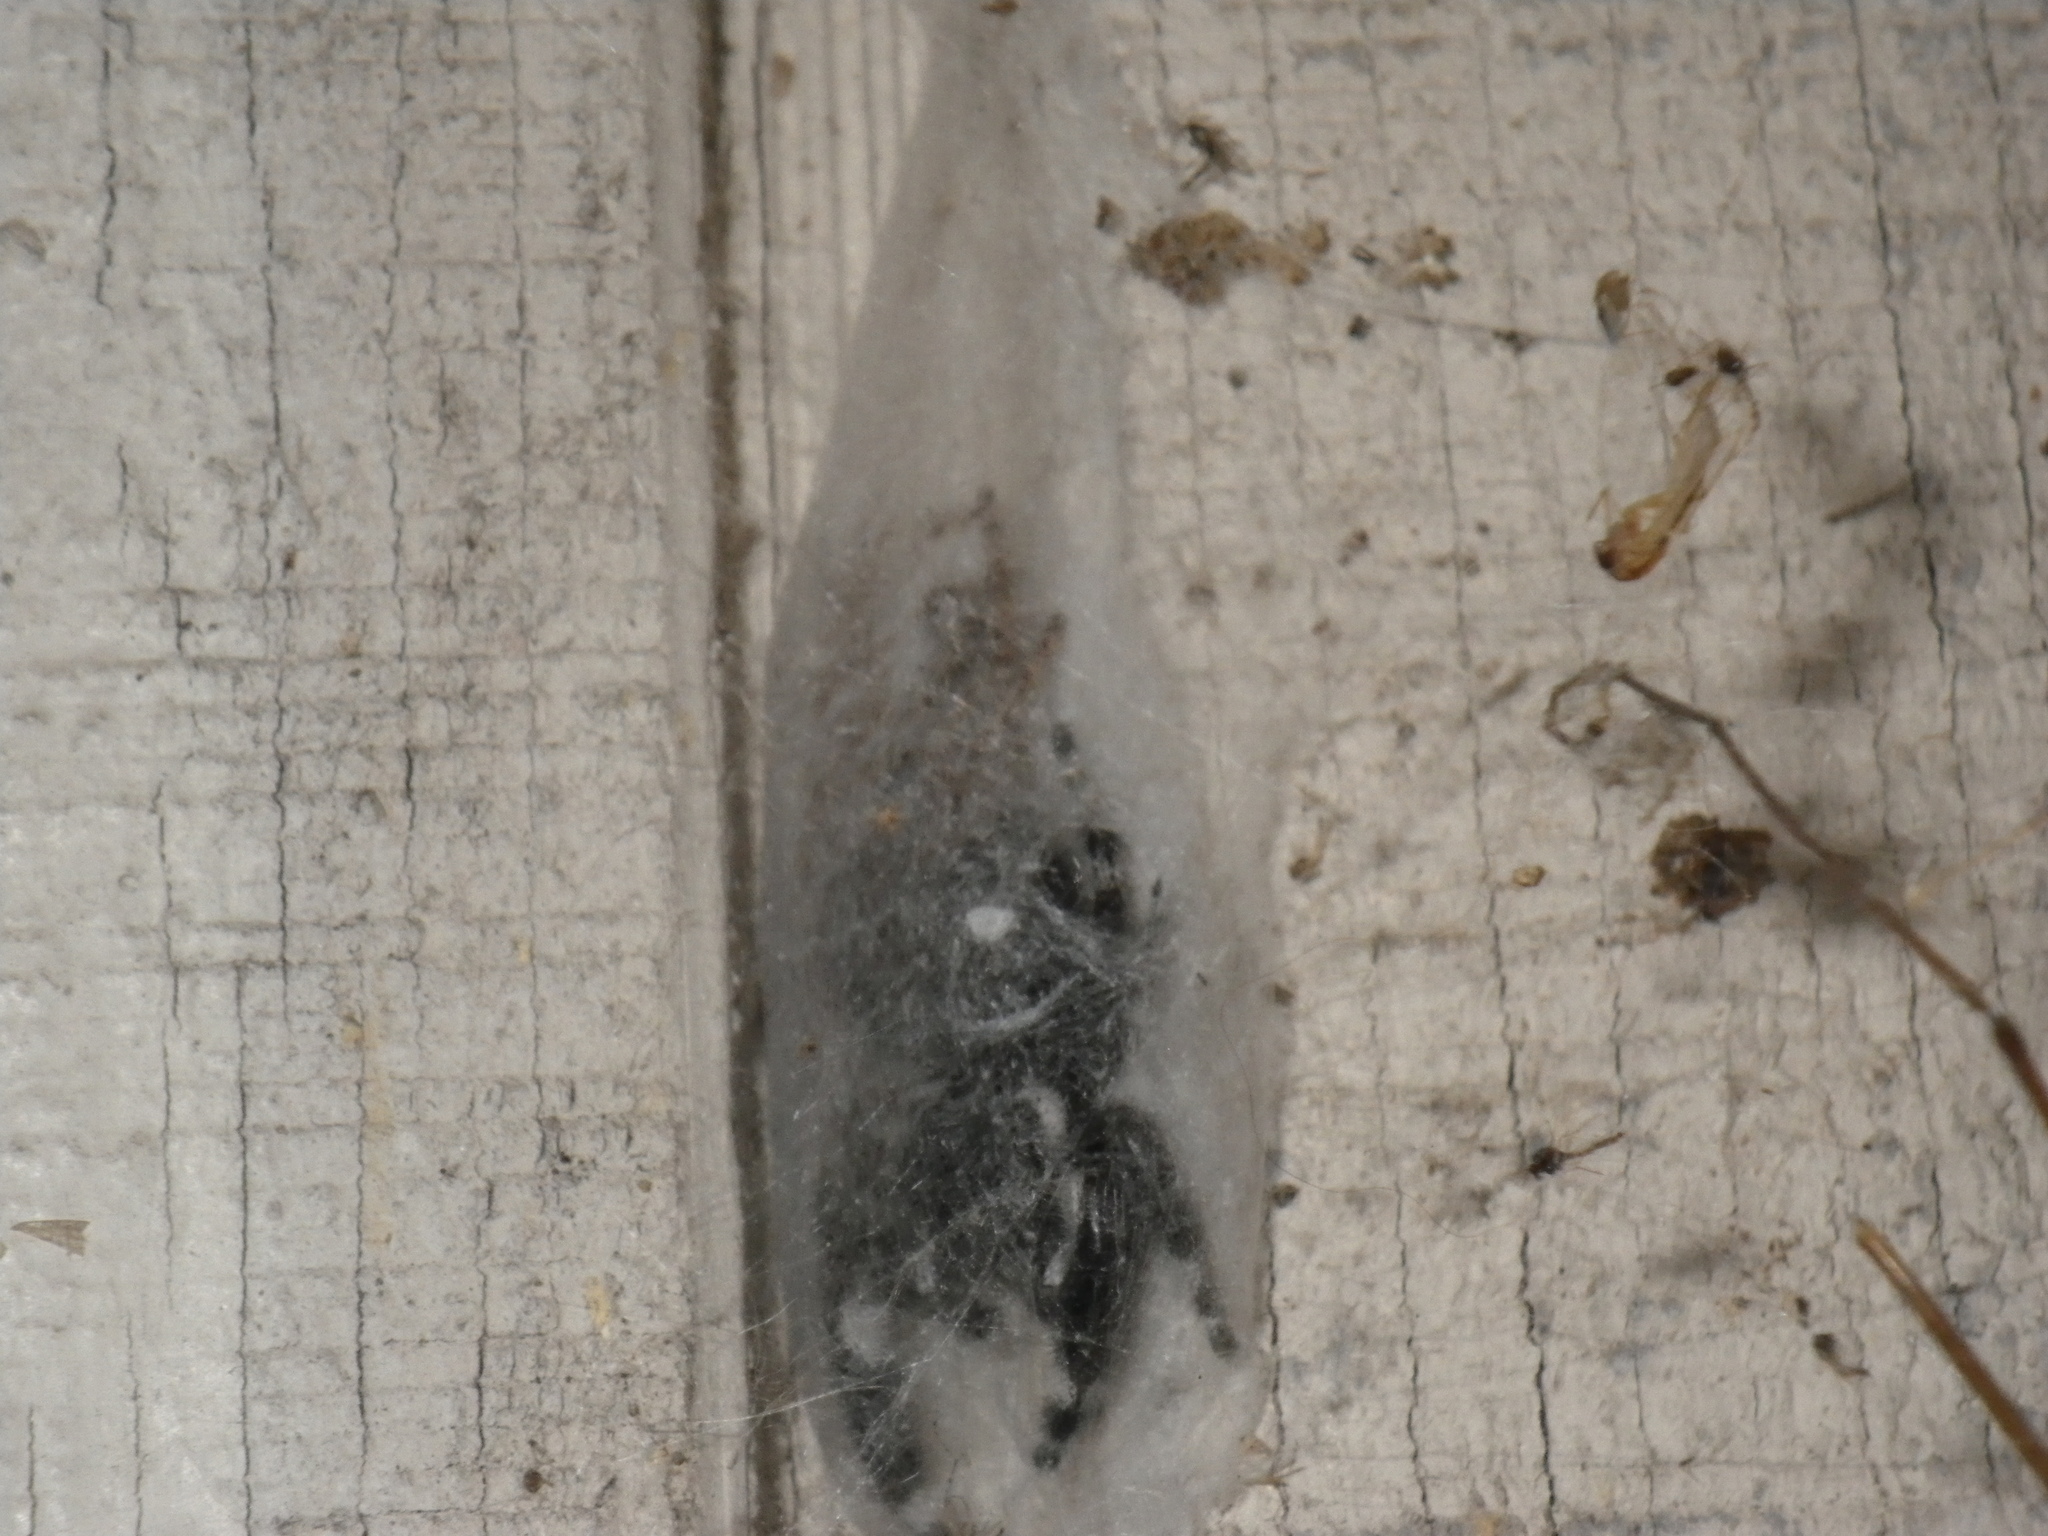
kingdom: Animalia
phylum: Arthropoda
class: Arachnida
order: Araneae
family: Salticidae
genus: Phidippus
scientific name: Phidippus audax
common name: Bold jumper
